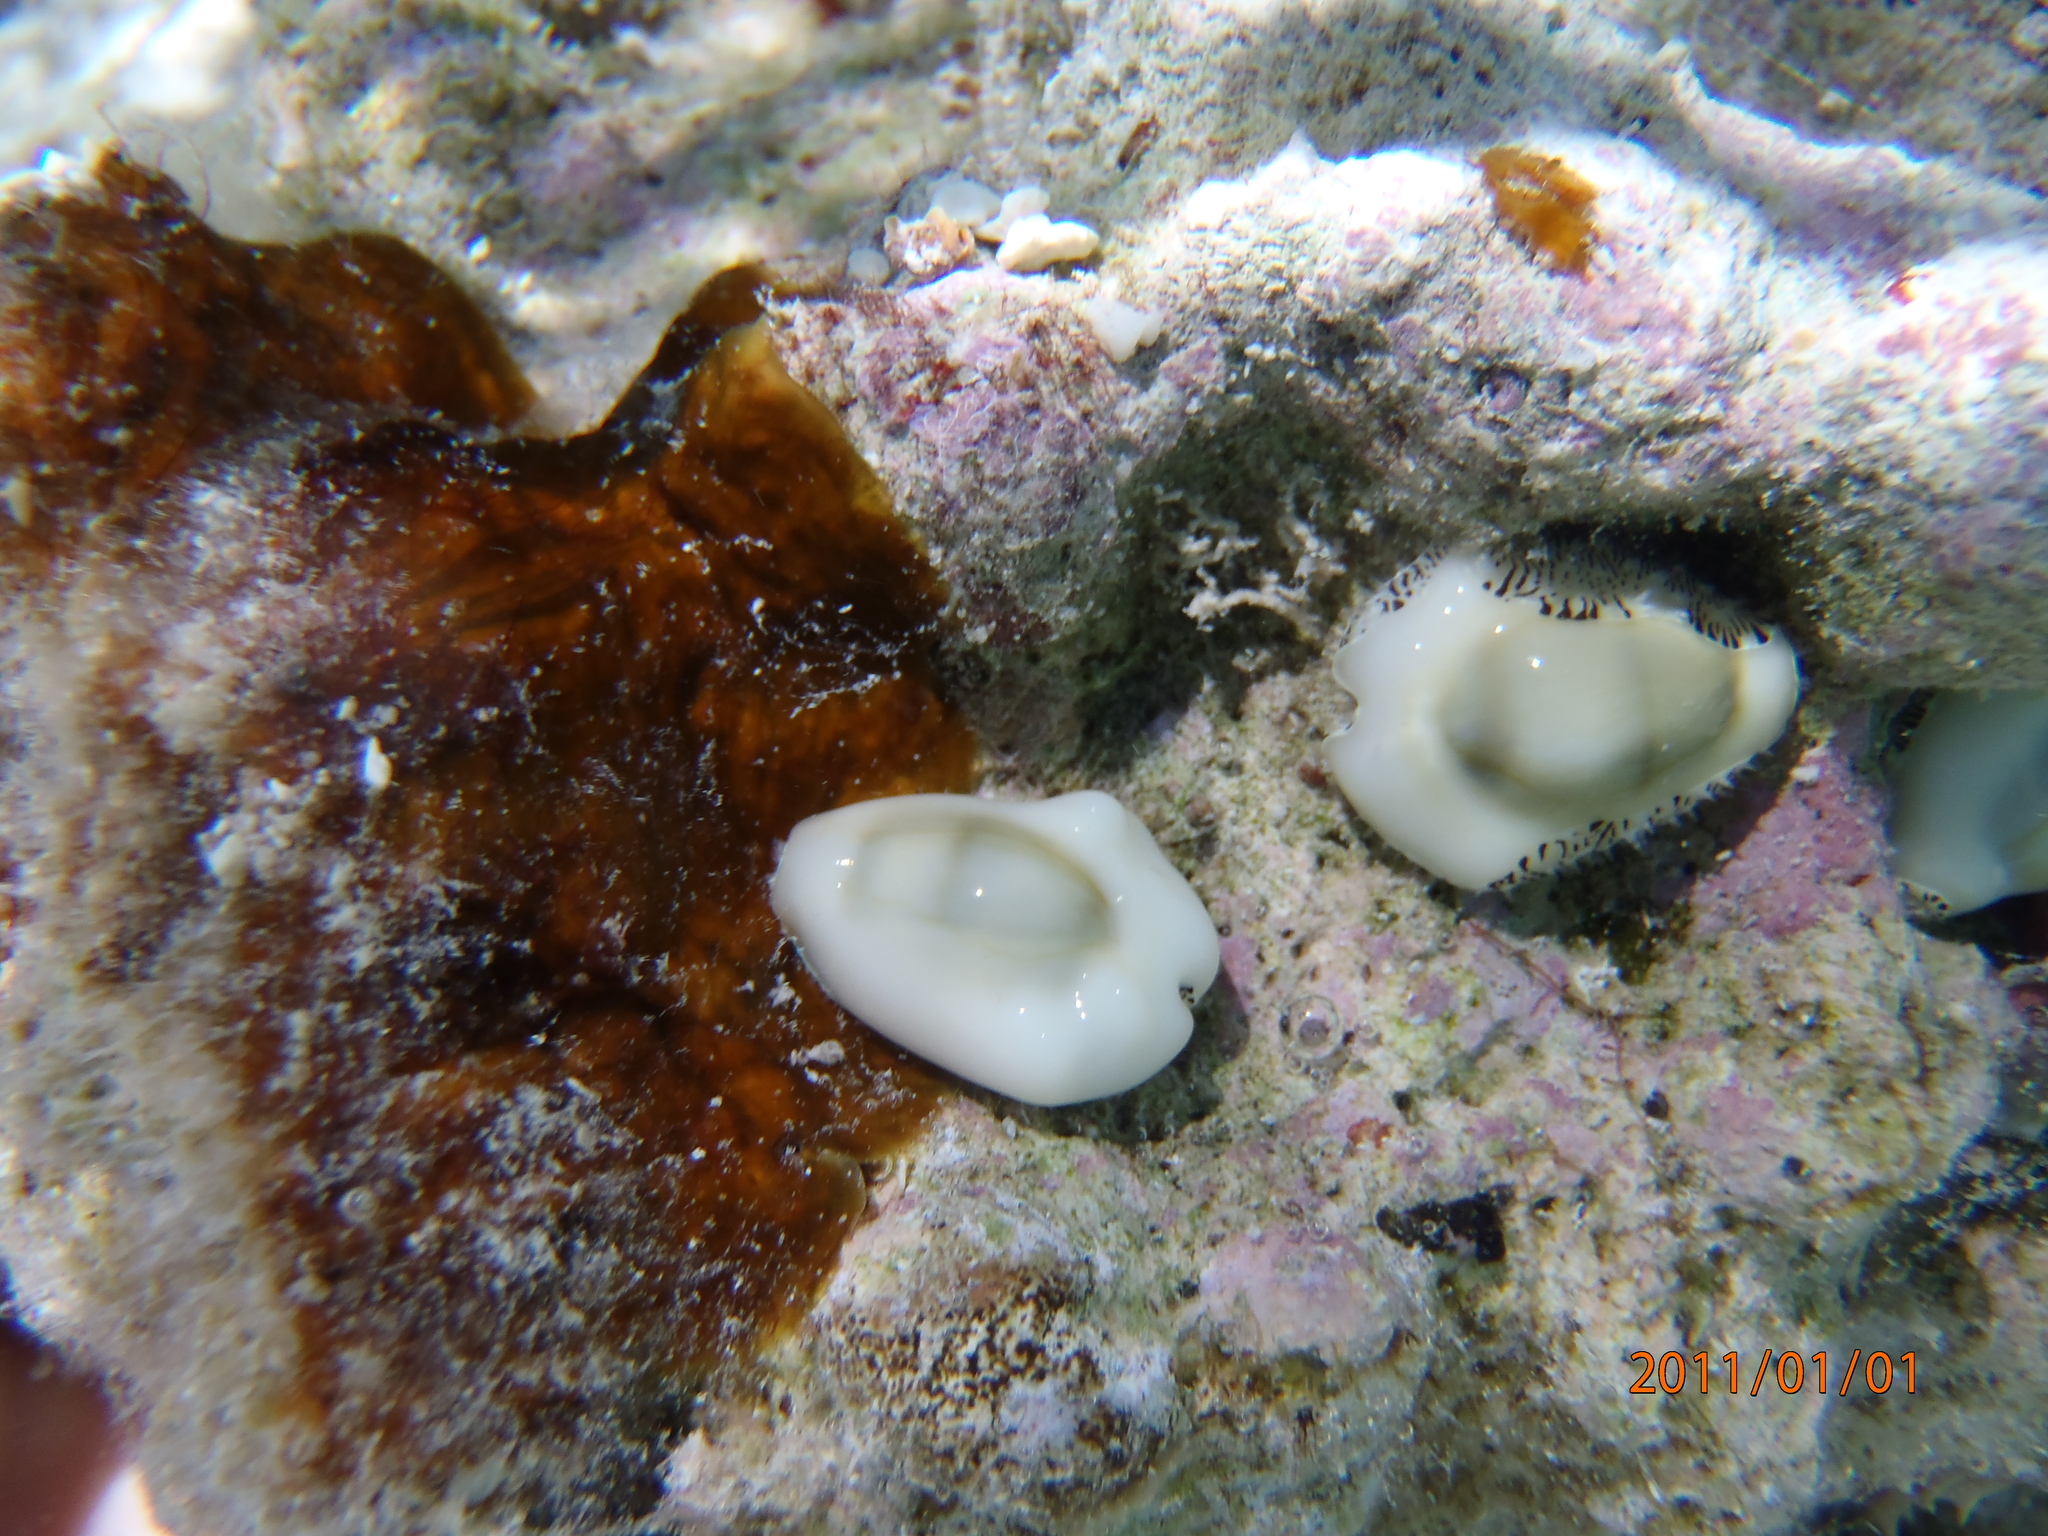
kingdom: Animalia
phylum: Mollusca
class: Gastropoda
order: Littorinimorpha
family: Cypraeidae
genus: Monetaria
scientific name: Monetaria moneta
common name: Money cowrie
